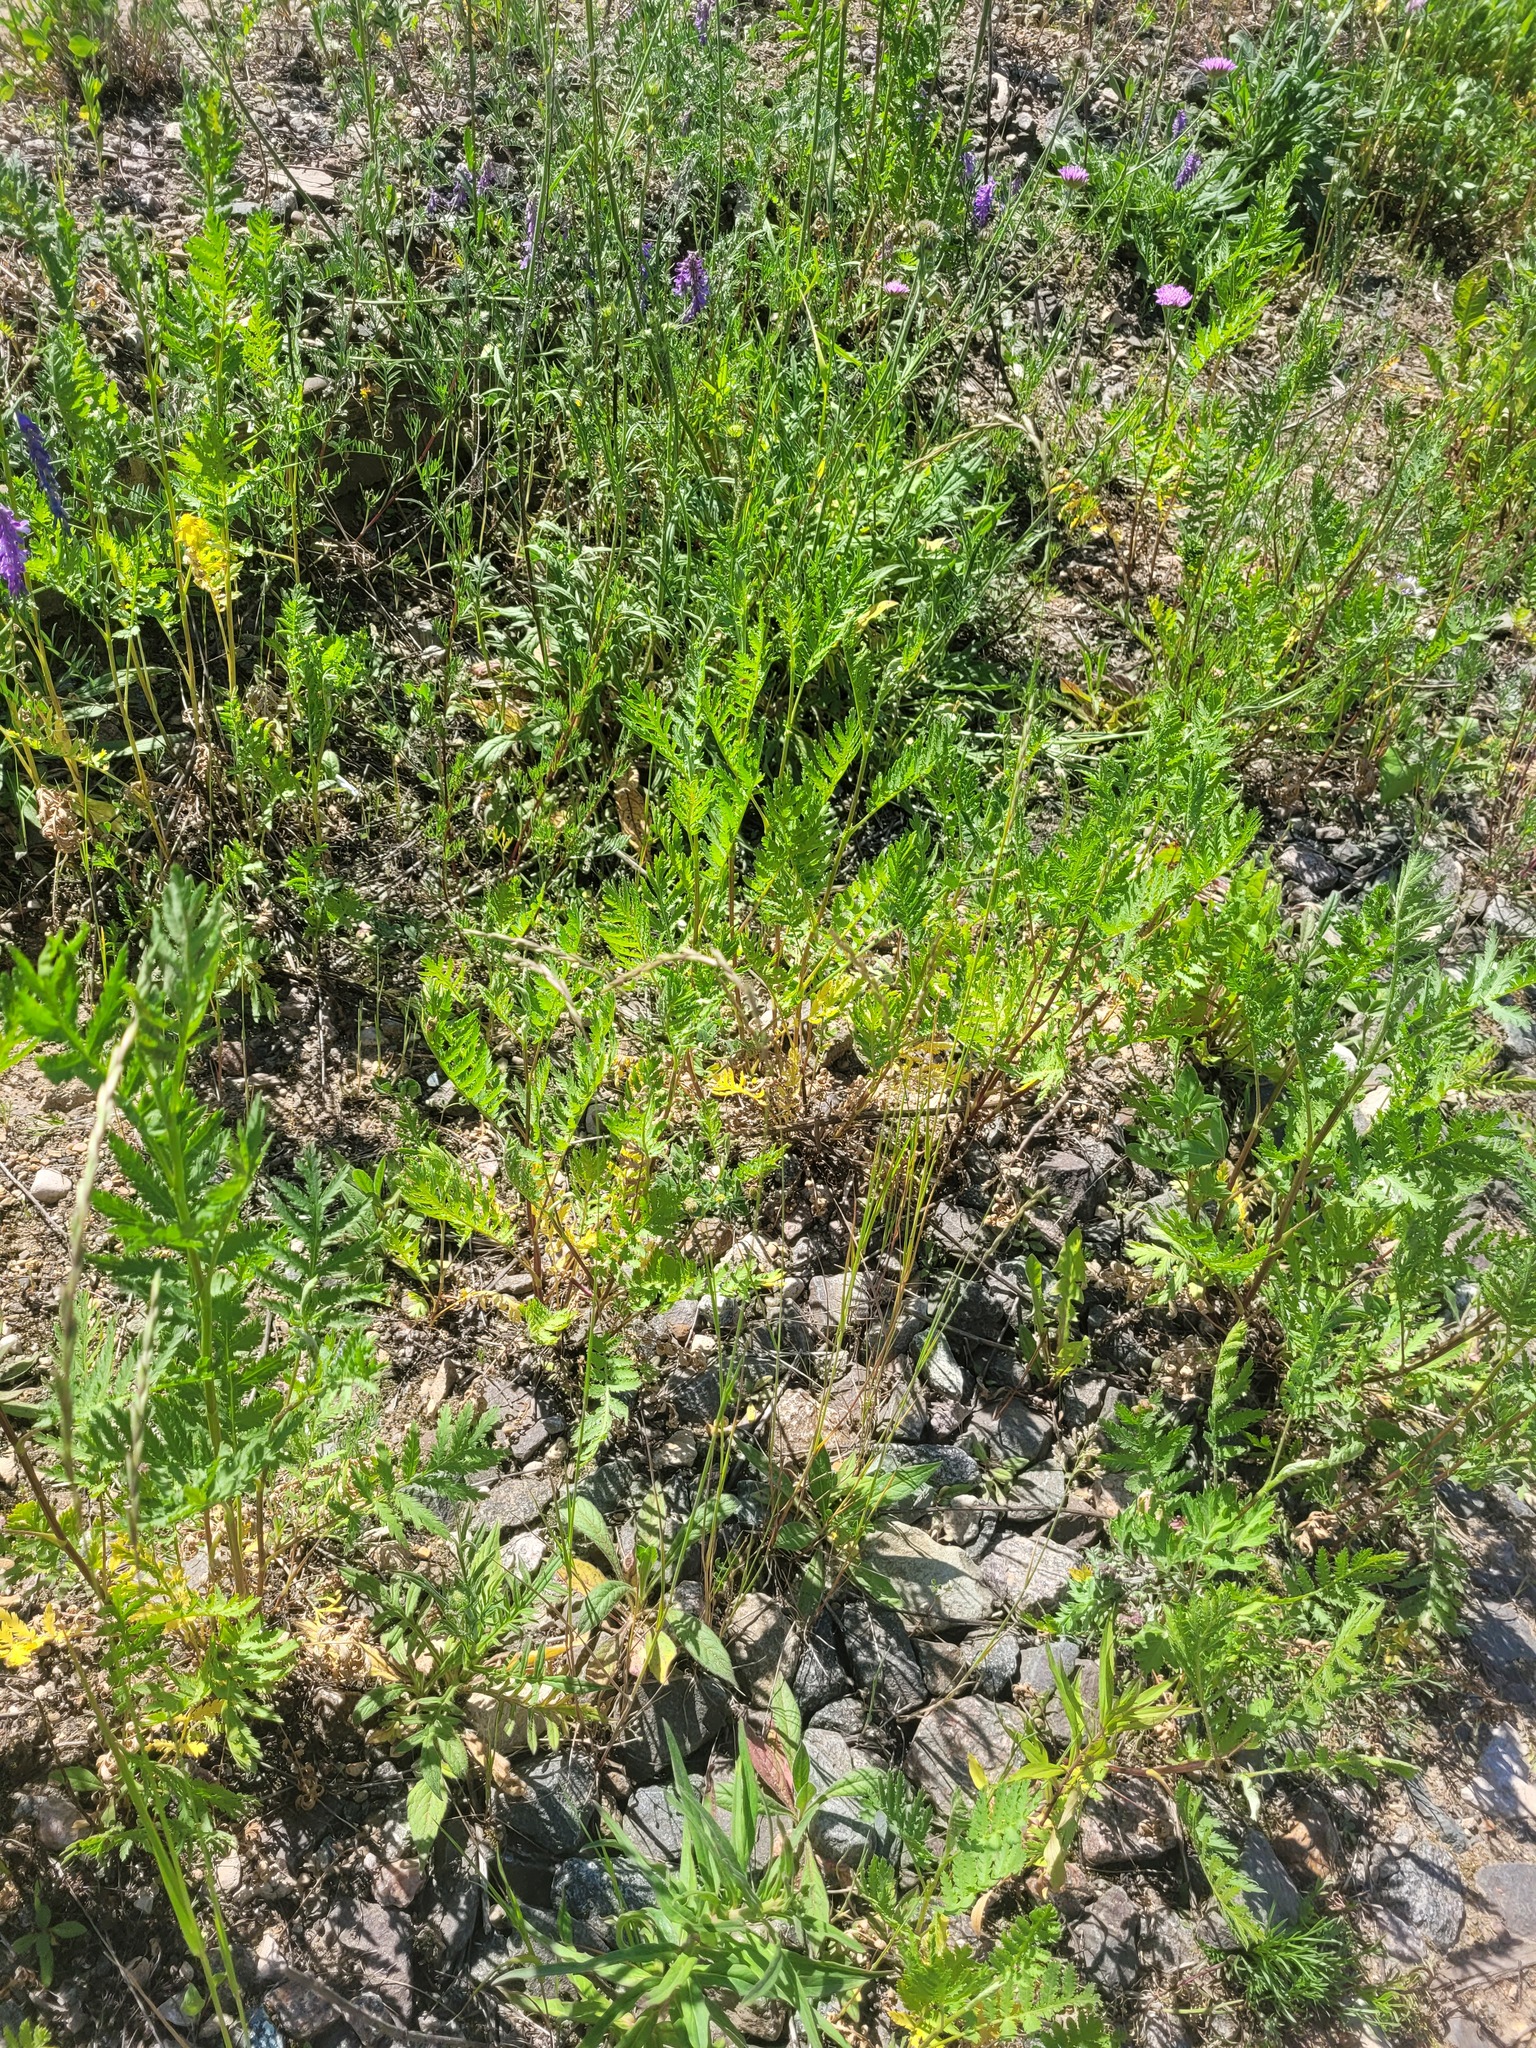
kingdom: Plantae
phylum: Tracheophyta
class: Magnoliopsida
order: Asterales
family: Asteraceae
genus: Tanacetum
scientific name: Tanacetum vulgare
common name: Common tansy
